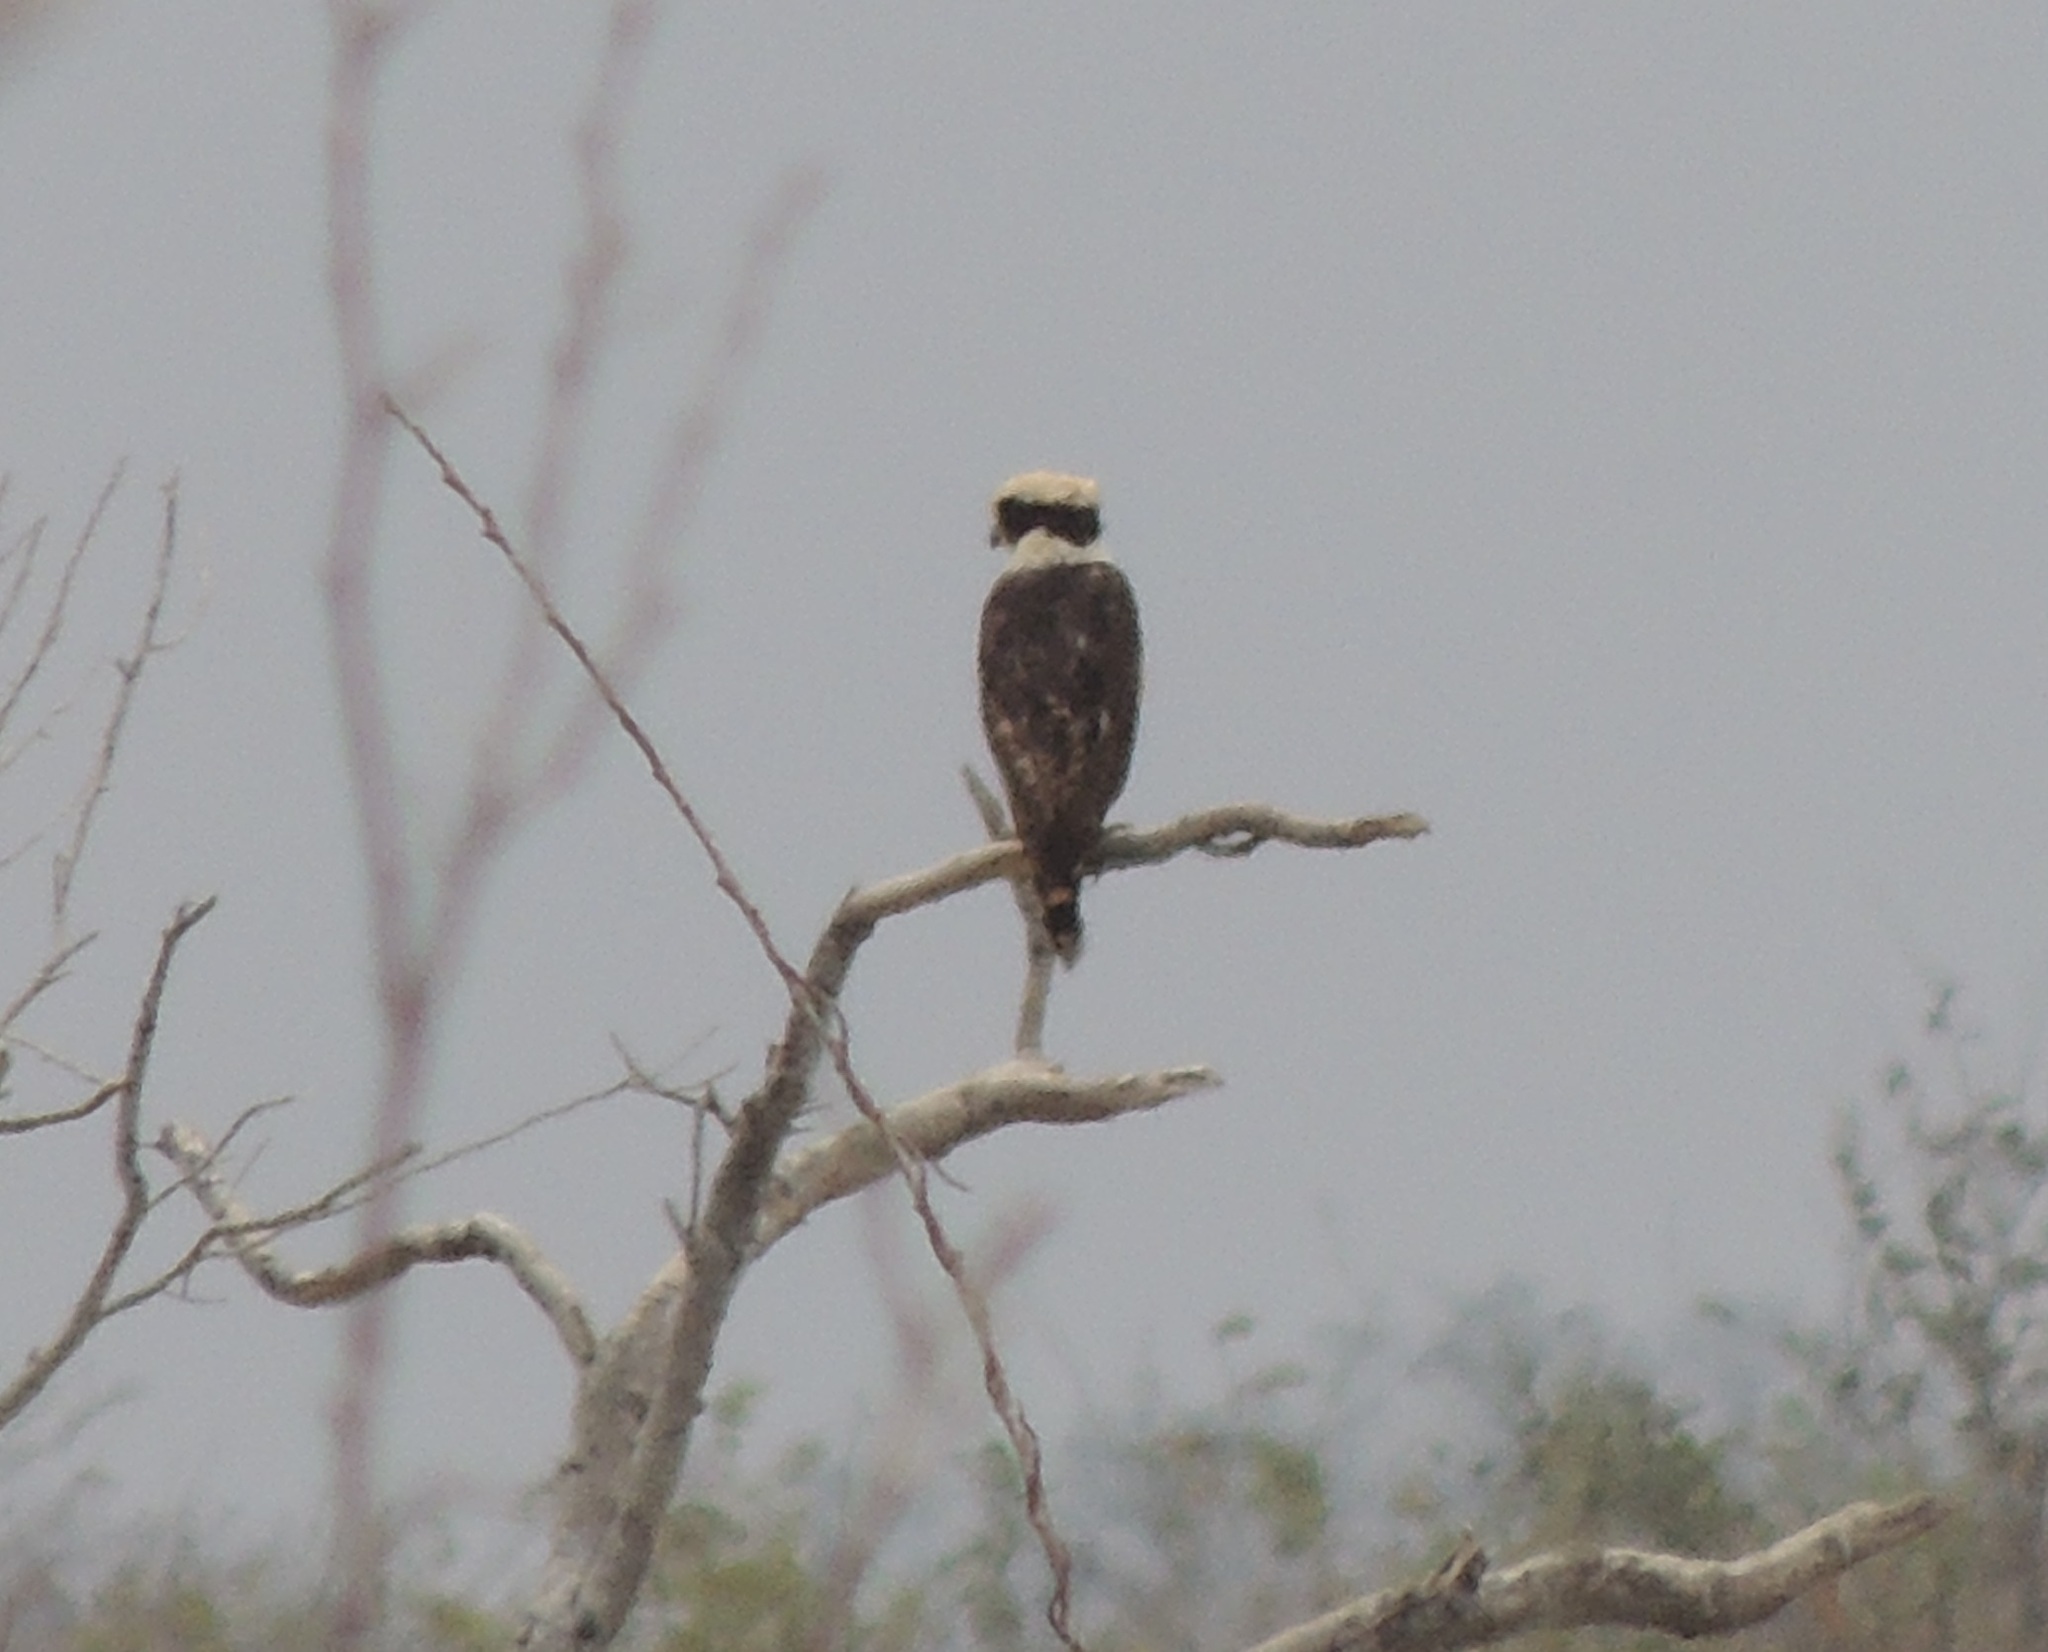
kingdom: Animalia
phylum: Chordata
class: Aves
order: Falconiformes
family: Falconidae
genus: Herpetotheres
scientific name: Herpetotheres cachinnans
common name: Laughing falcon
